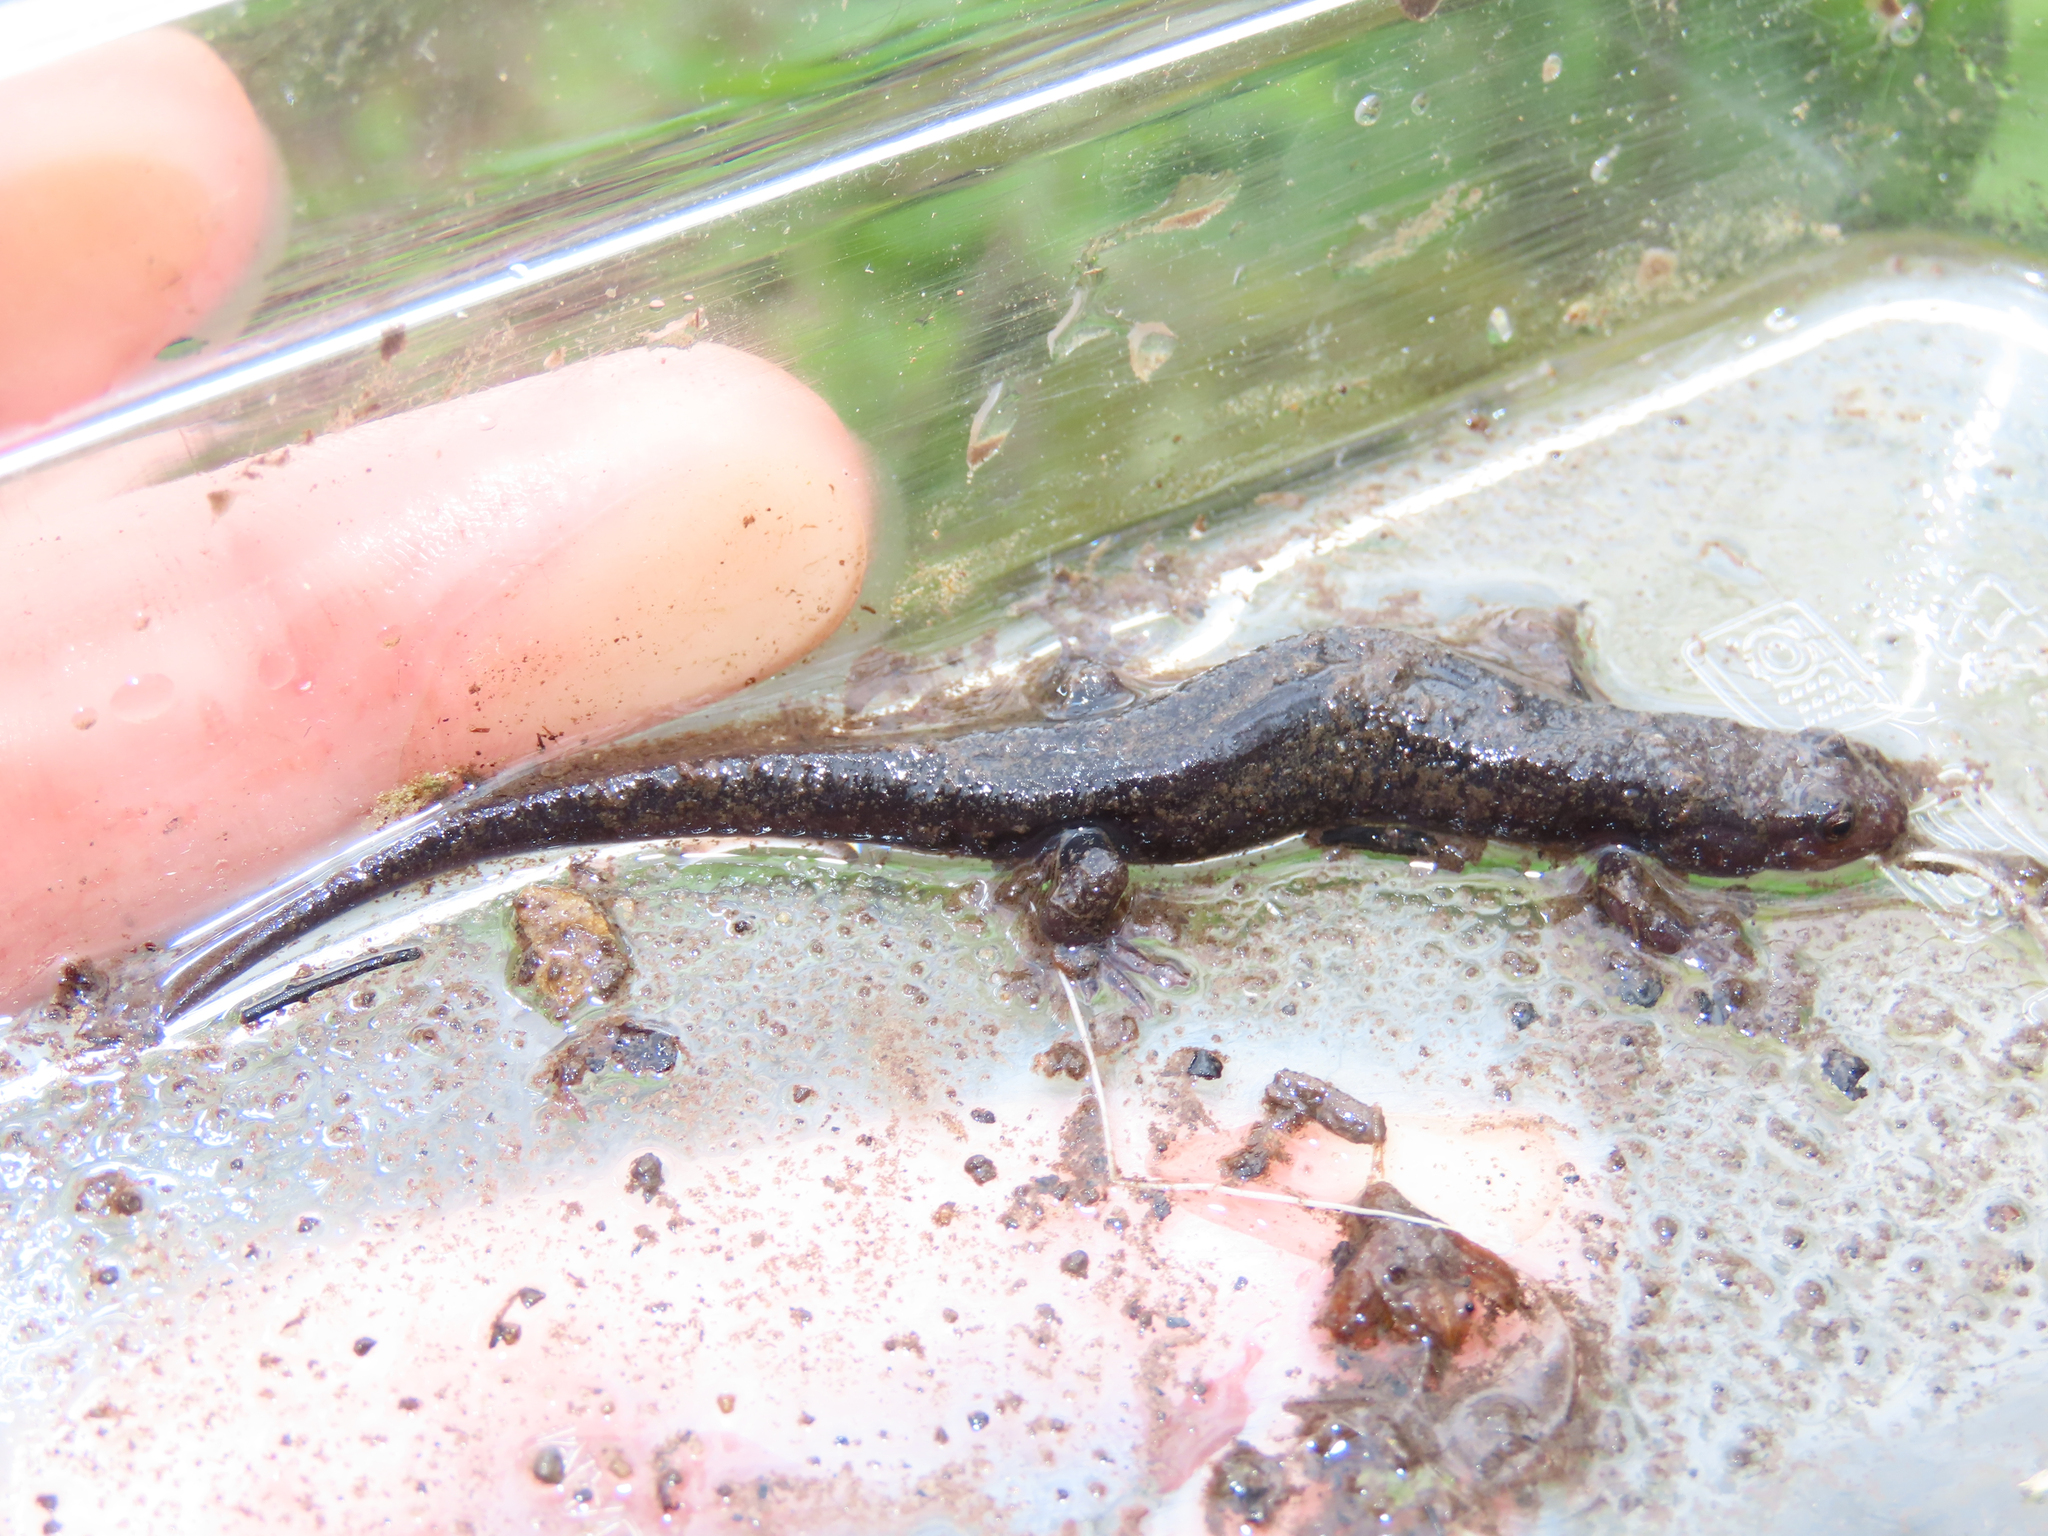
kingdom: Animalia
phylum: Chordata
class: Amphibia
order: Caudata
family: Plethodontidae
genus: Desmognathus
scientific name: Desmognathus fuscus
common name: Northern dusky salamander
